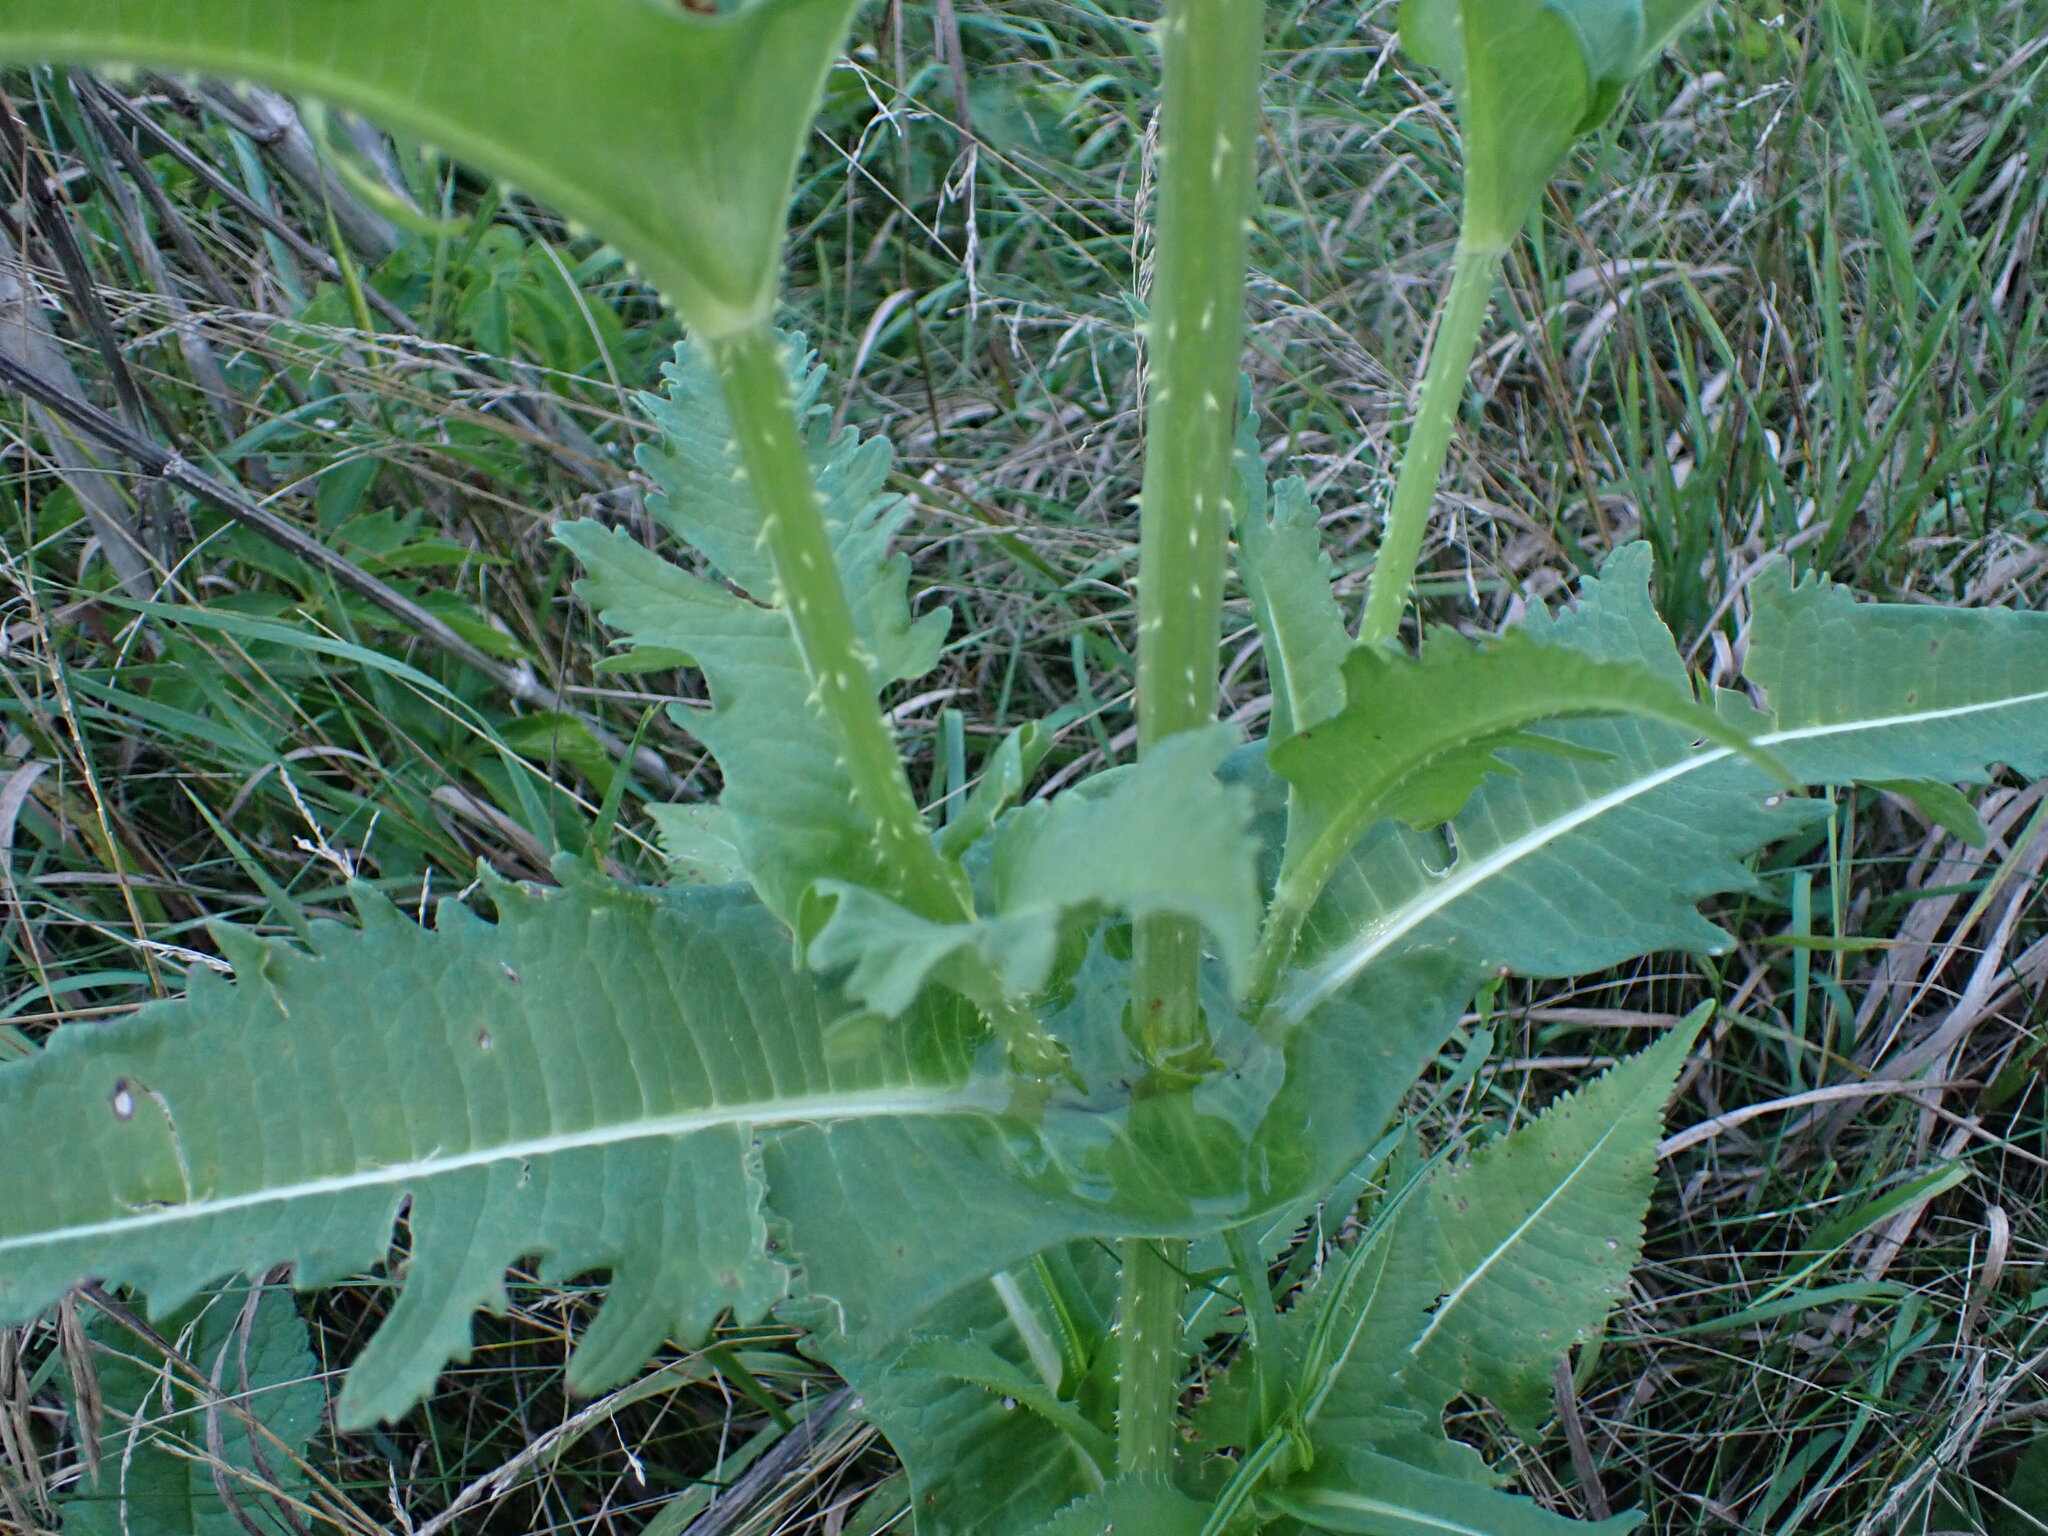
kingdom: Plantae
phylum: Tracheophyta
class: Magnoliopsida
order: Dipsacales
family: Caprifoliaceae
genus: Dipsacus
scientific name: Dipsacus laciniatus
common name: Cut-leaved teasel
